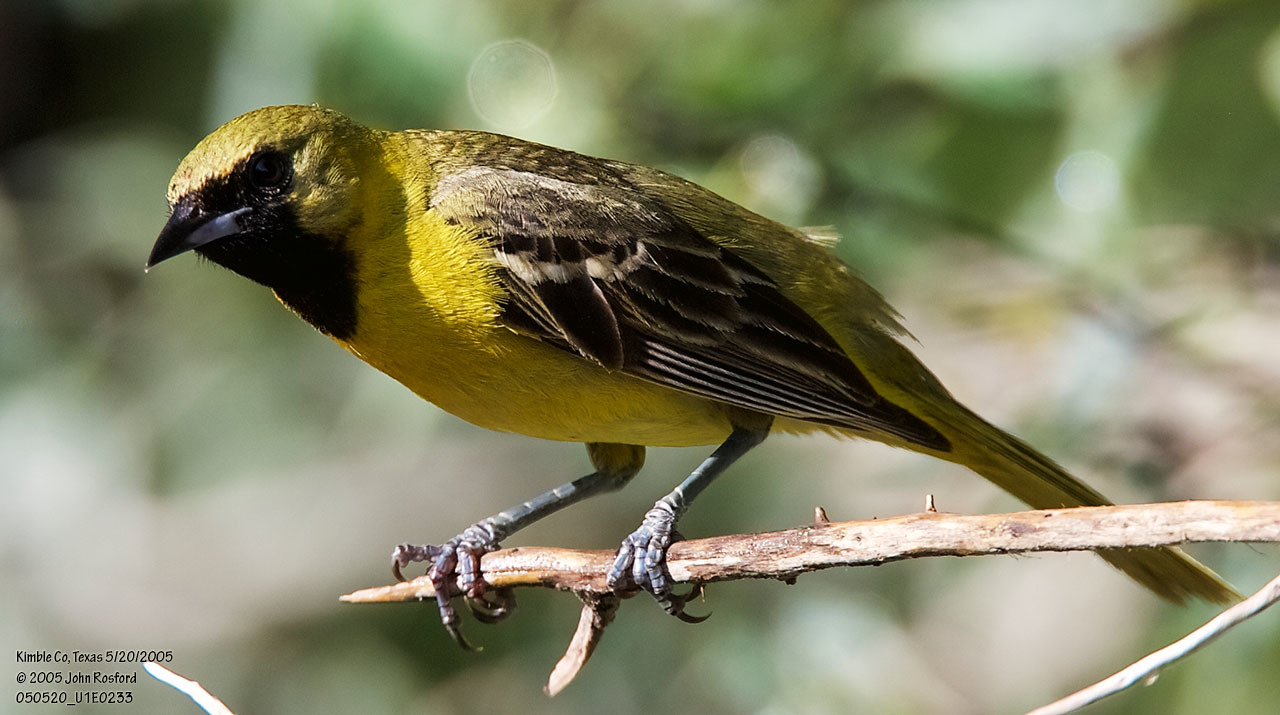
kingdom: Animalia
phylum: Chordata
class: Aves
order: Passeriformes
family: Icteridae
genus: Icterus
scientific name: Icterus spurius
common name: Orchard oriole
